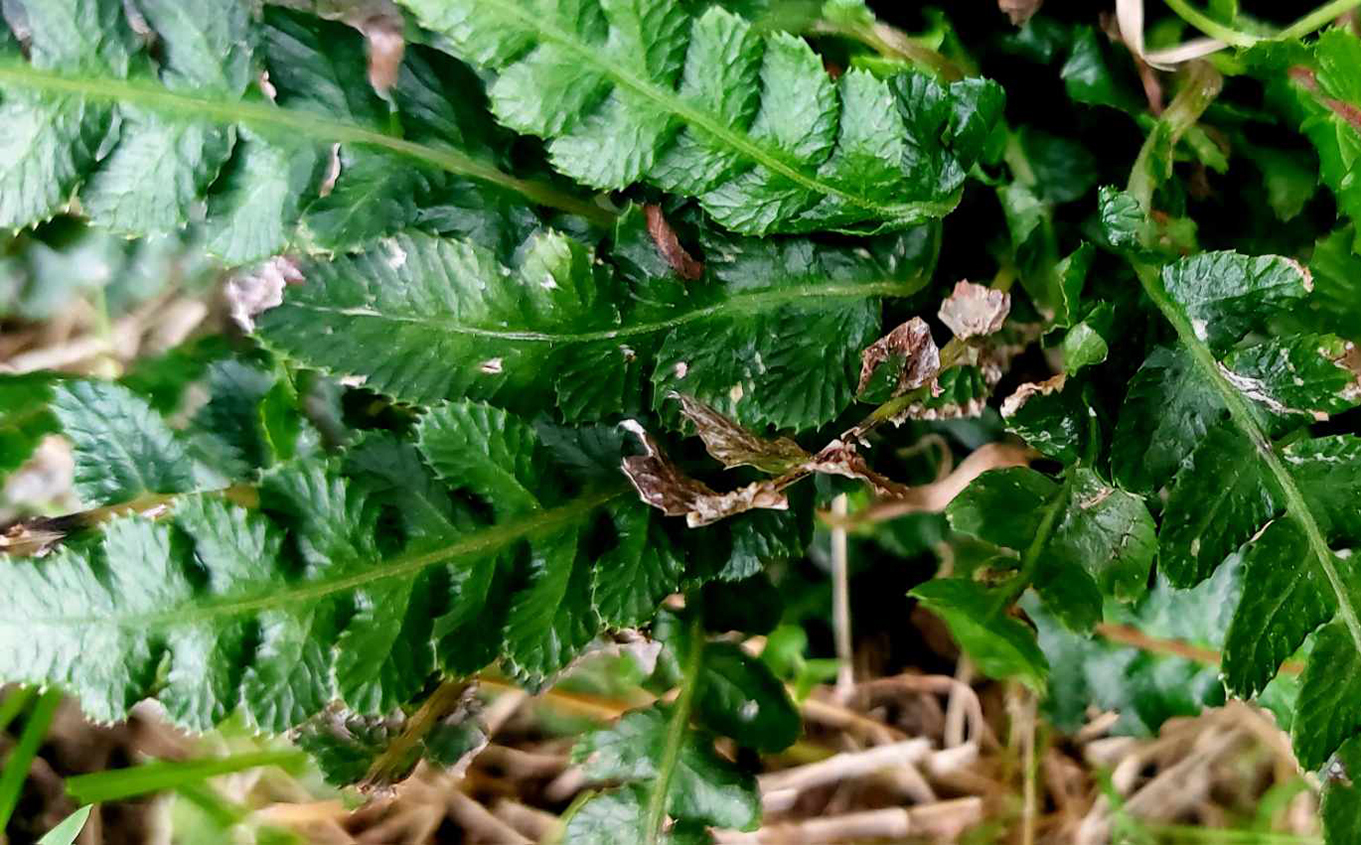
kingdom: Plantae
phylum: Tracheophyta
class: Polypodiopsida
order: Polypodiales
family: Blechnaceae
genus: Doodia
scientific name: Doodia australis
